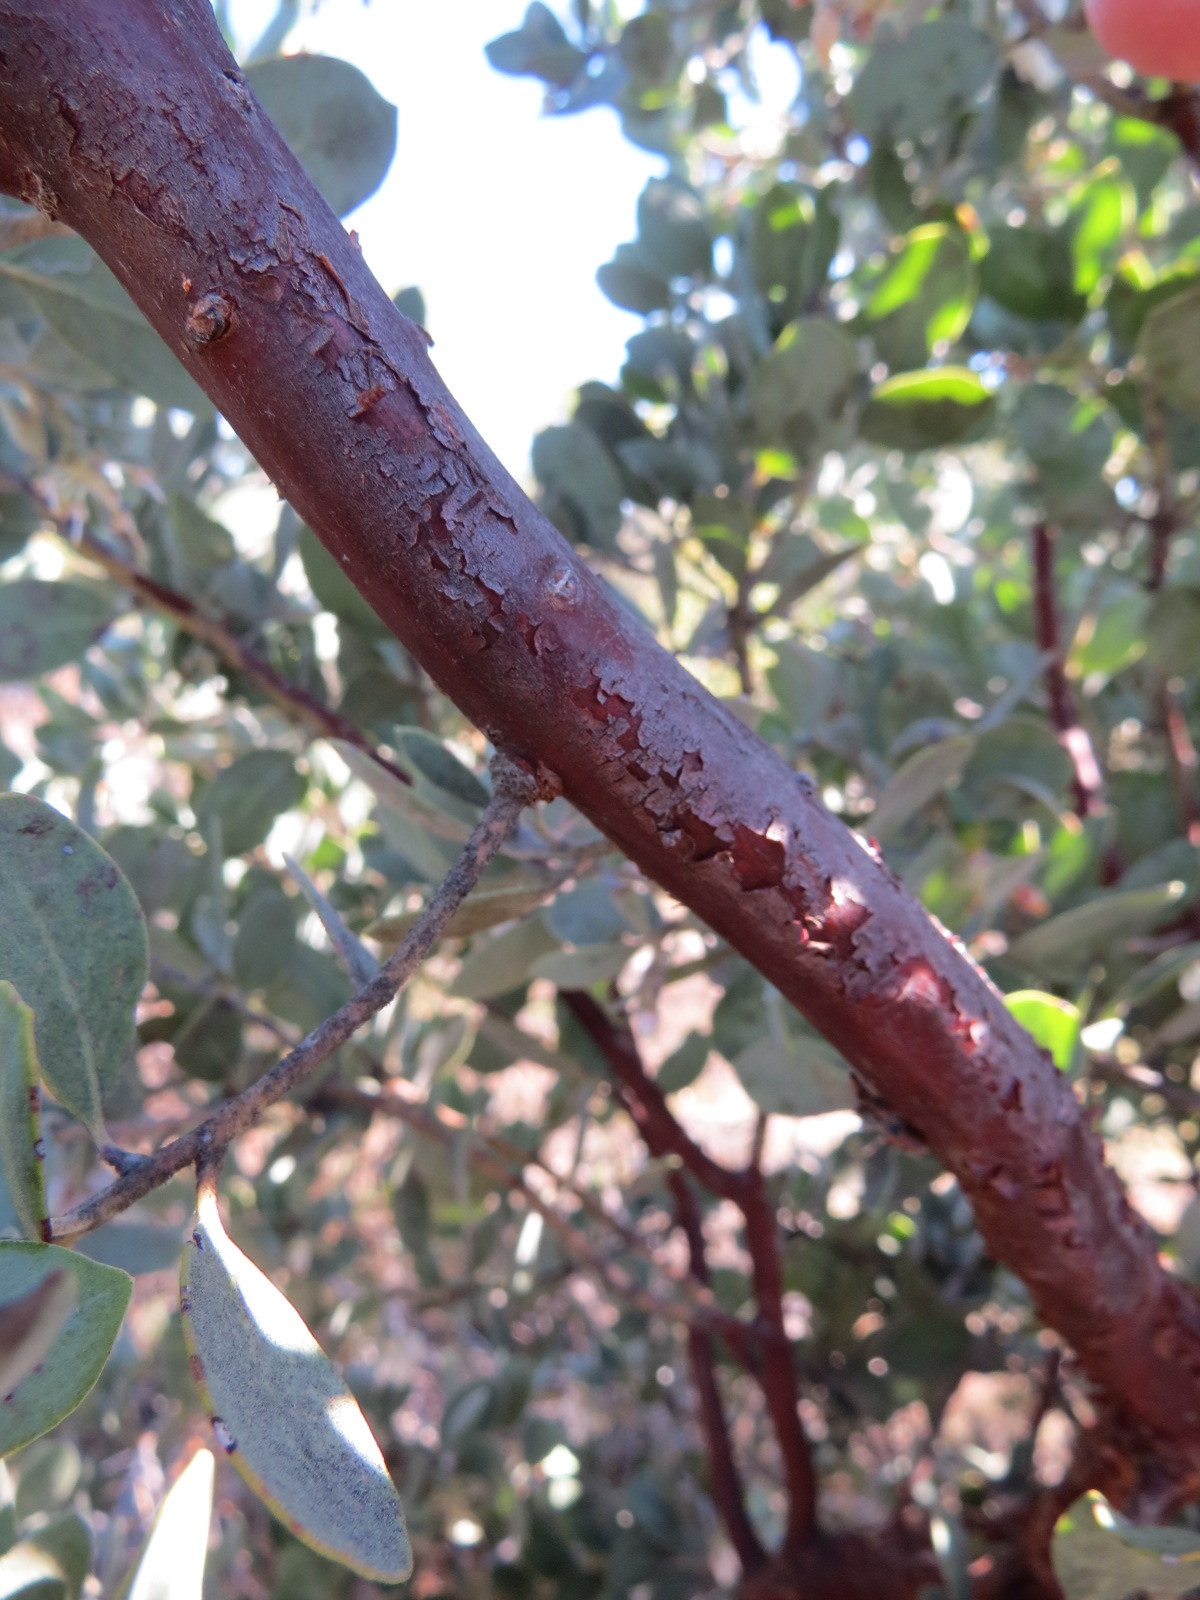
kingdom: Plantae
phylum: Tracheophyta
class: Magnoliopsida
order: Ericales
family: Ericaceae
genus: Arctostaphylos
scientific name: Arctostaphylos silvicola
